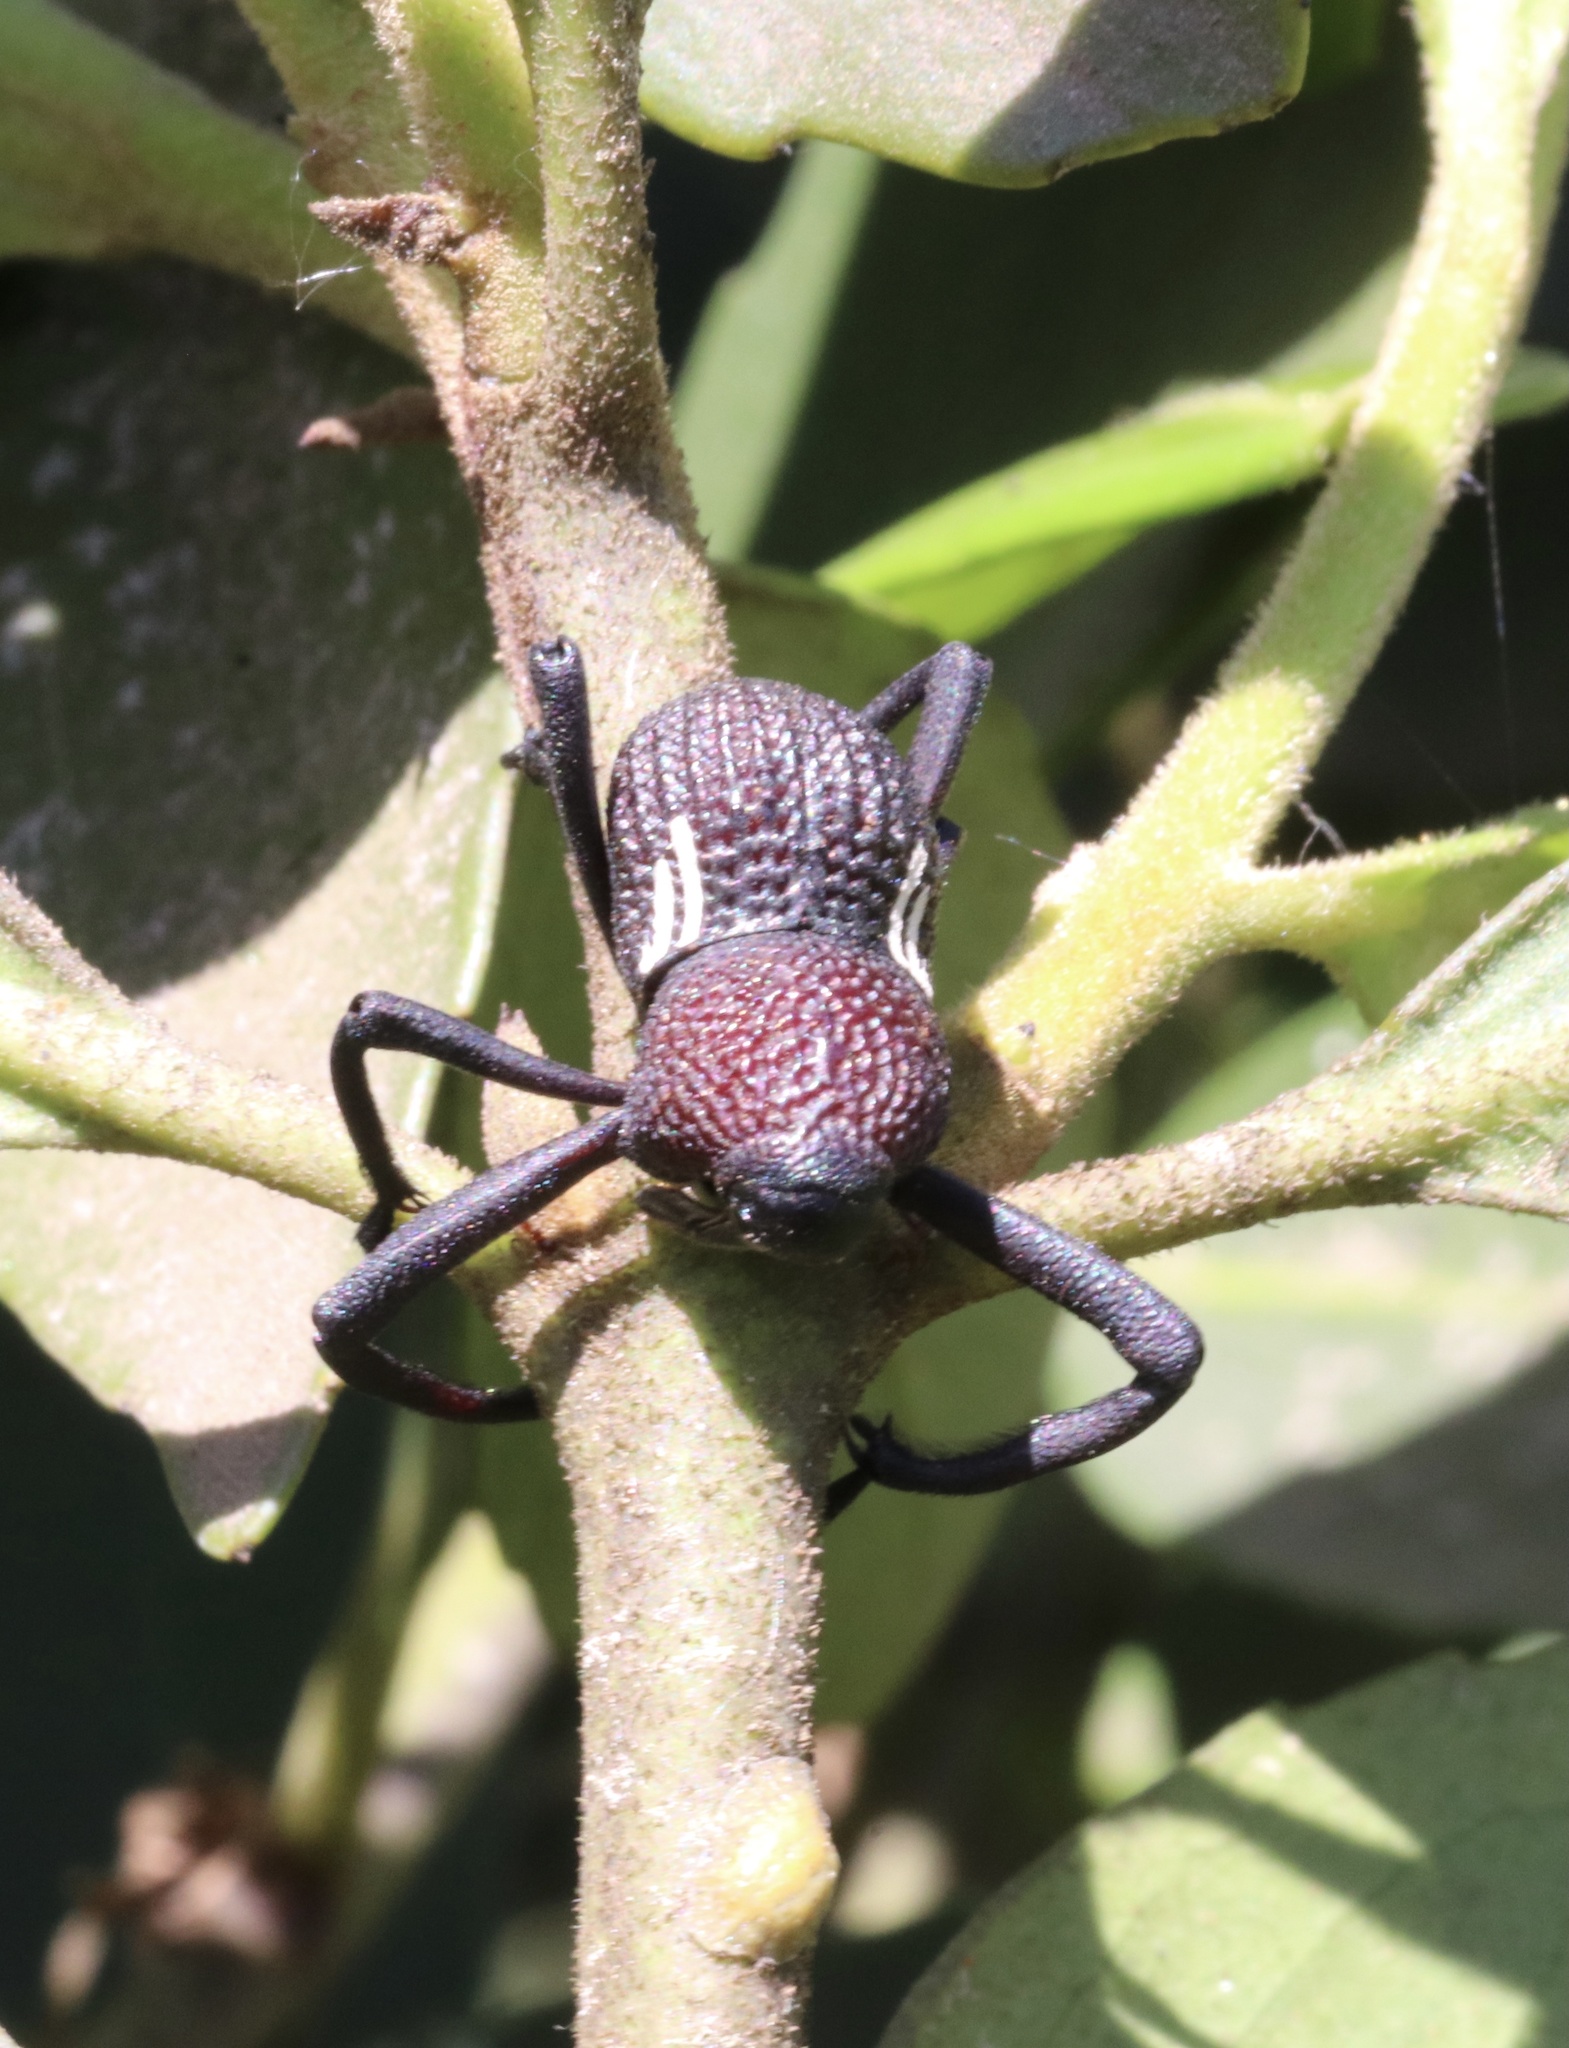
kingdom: Animalia
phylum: Arthropoda
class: Insecta
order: Coleoptera
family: Curculionidae
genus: Rhyephenes
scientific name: Rhyephenes humeralis
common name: Araè±ita chilena del pino
